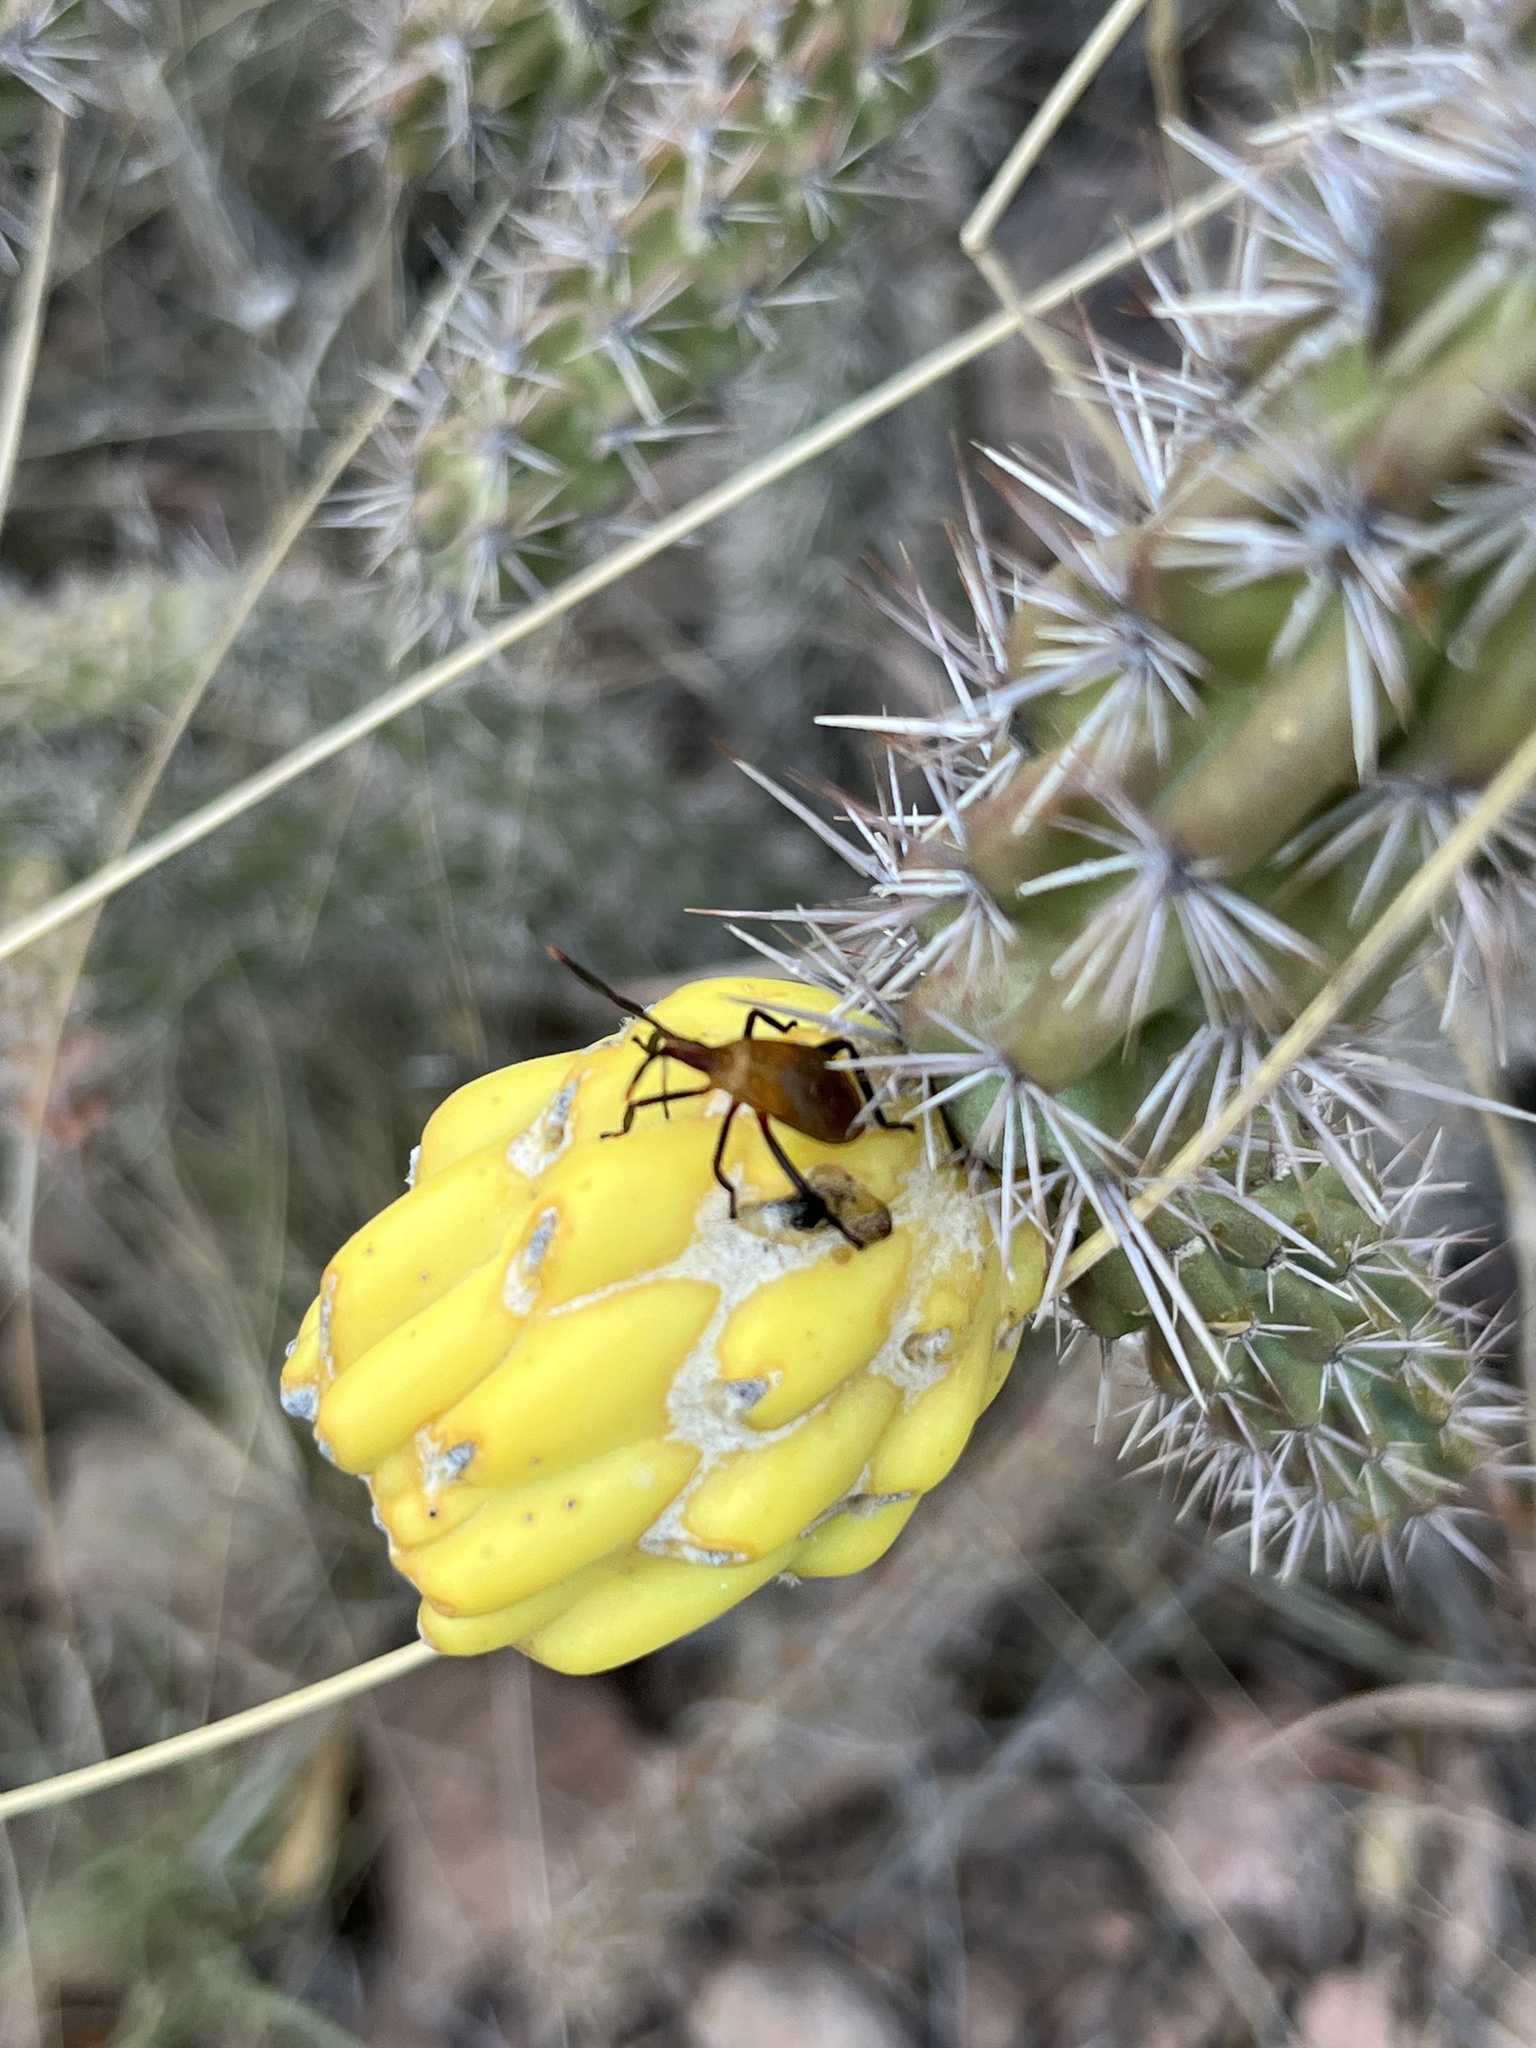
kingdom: Animalia
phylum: Arthropoda
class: Insecta
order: Hemiptera
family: Coreidae
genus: Chelinidea
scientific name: Chelinidea vittiger
